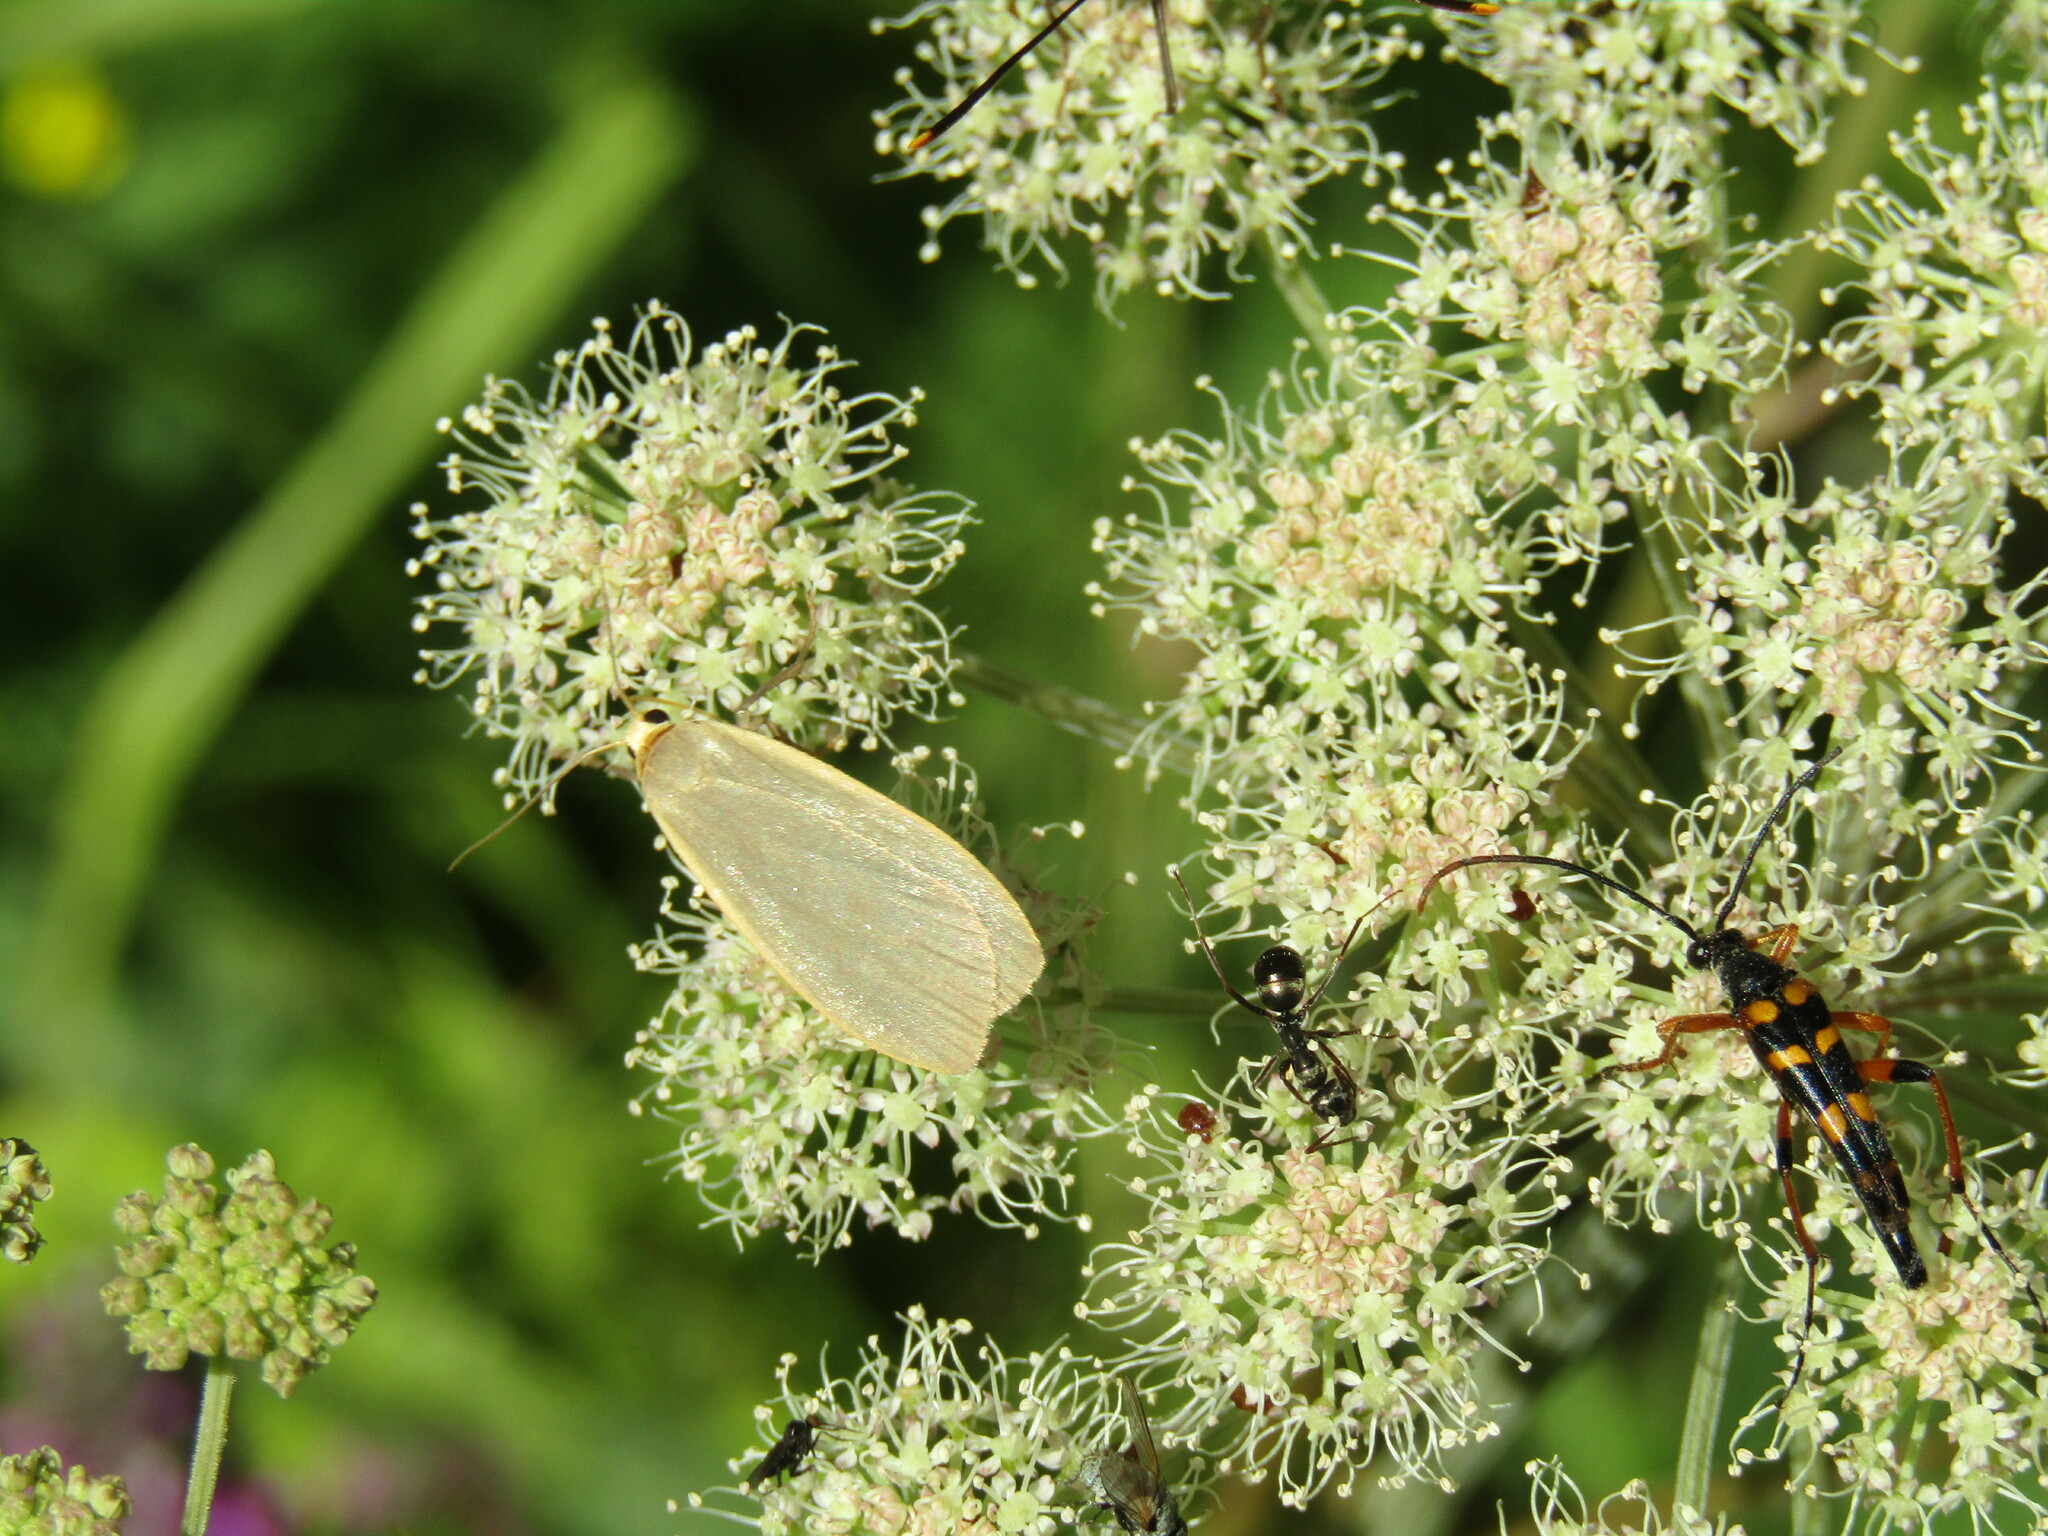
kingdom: Animalia
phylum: Arthropoda
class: Insecta
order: Lepidoptera
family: Erebidae
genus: Collita
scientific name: Collita griseola
